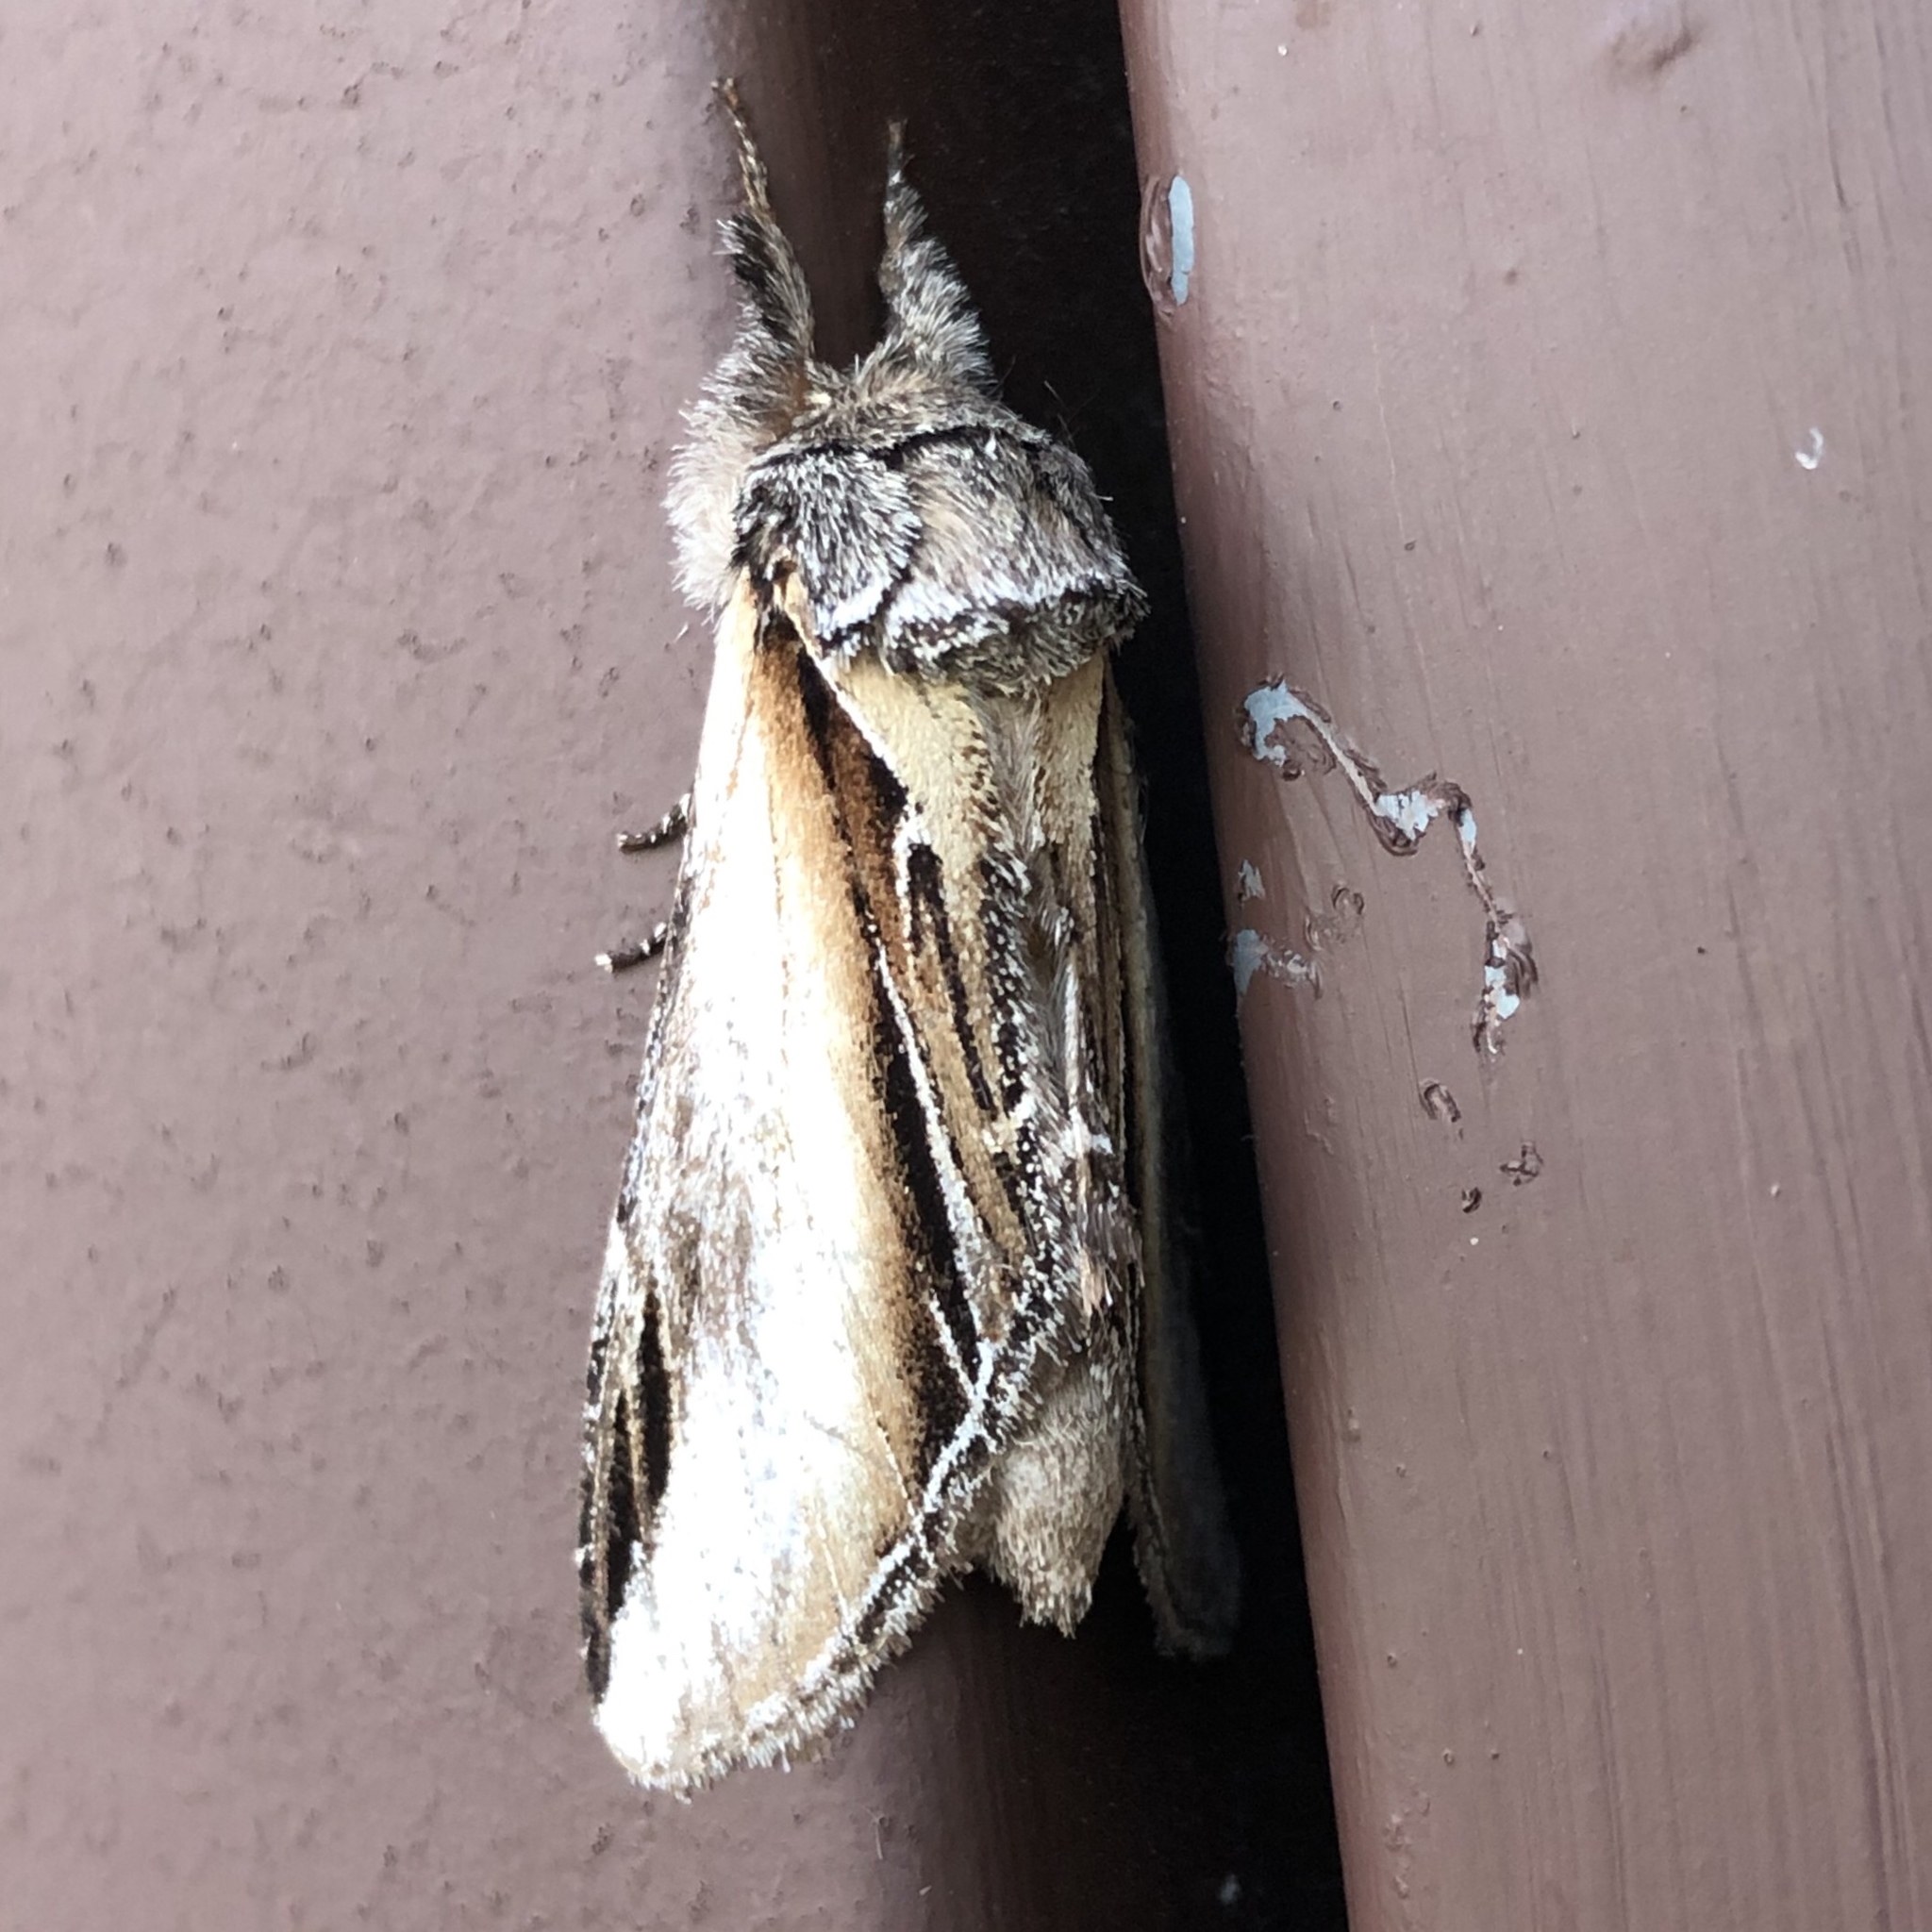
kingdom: Animalia
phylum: Arthropoda
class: Insecta
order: Lepidoptera
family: Notodontidae
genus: Pheosia
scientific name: Pheosia rimosa
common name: Black-rimmed prominent
